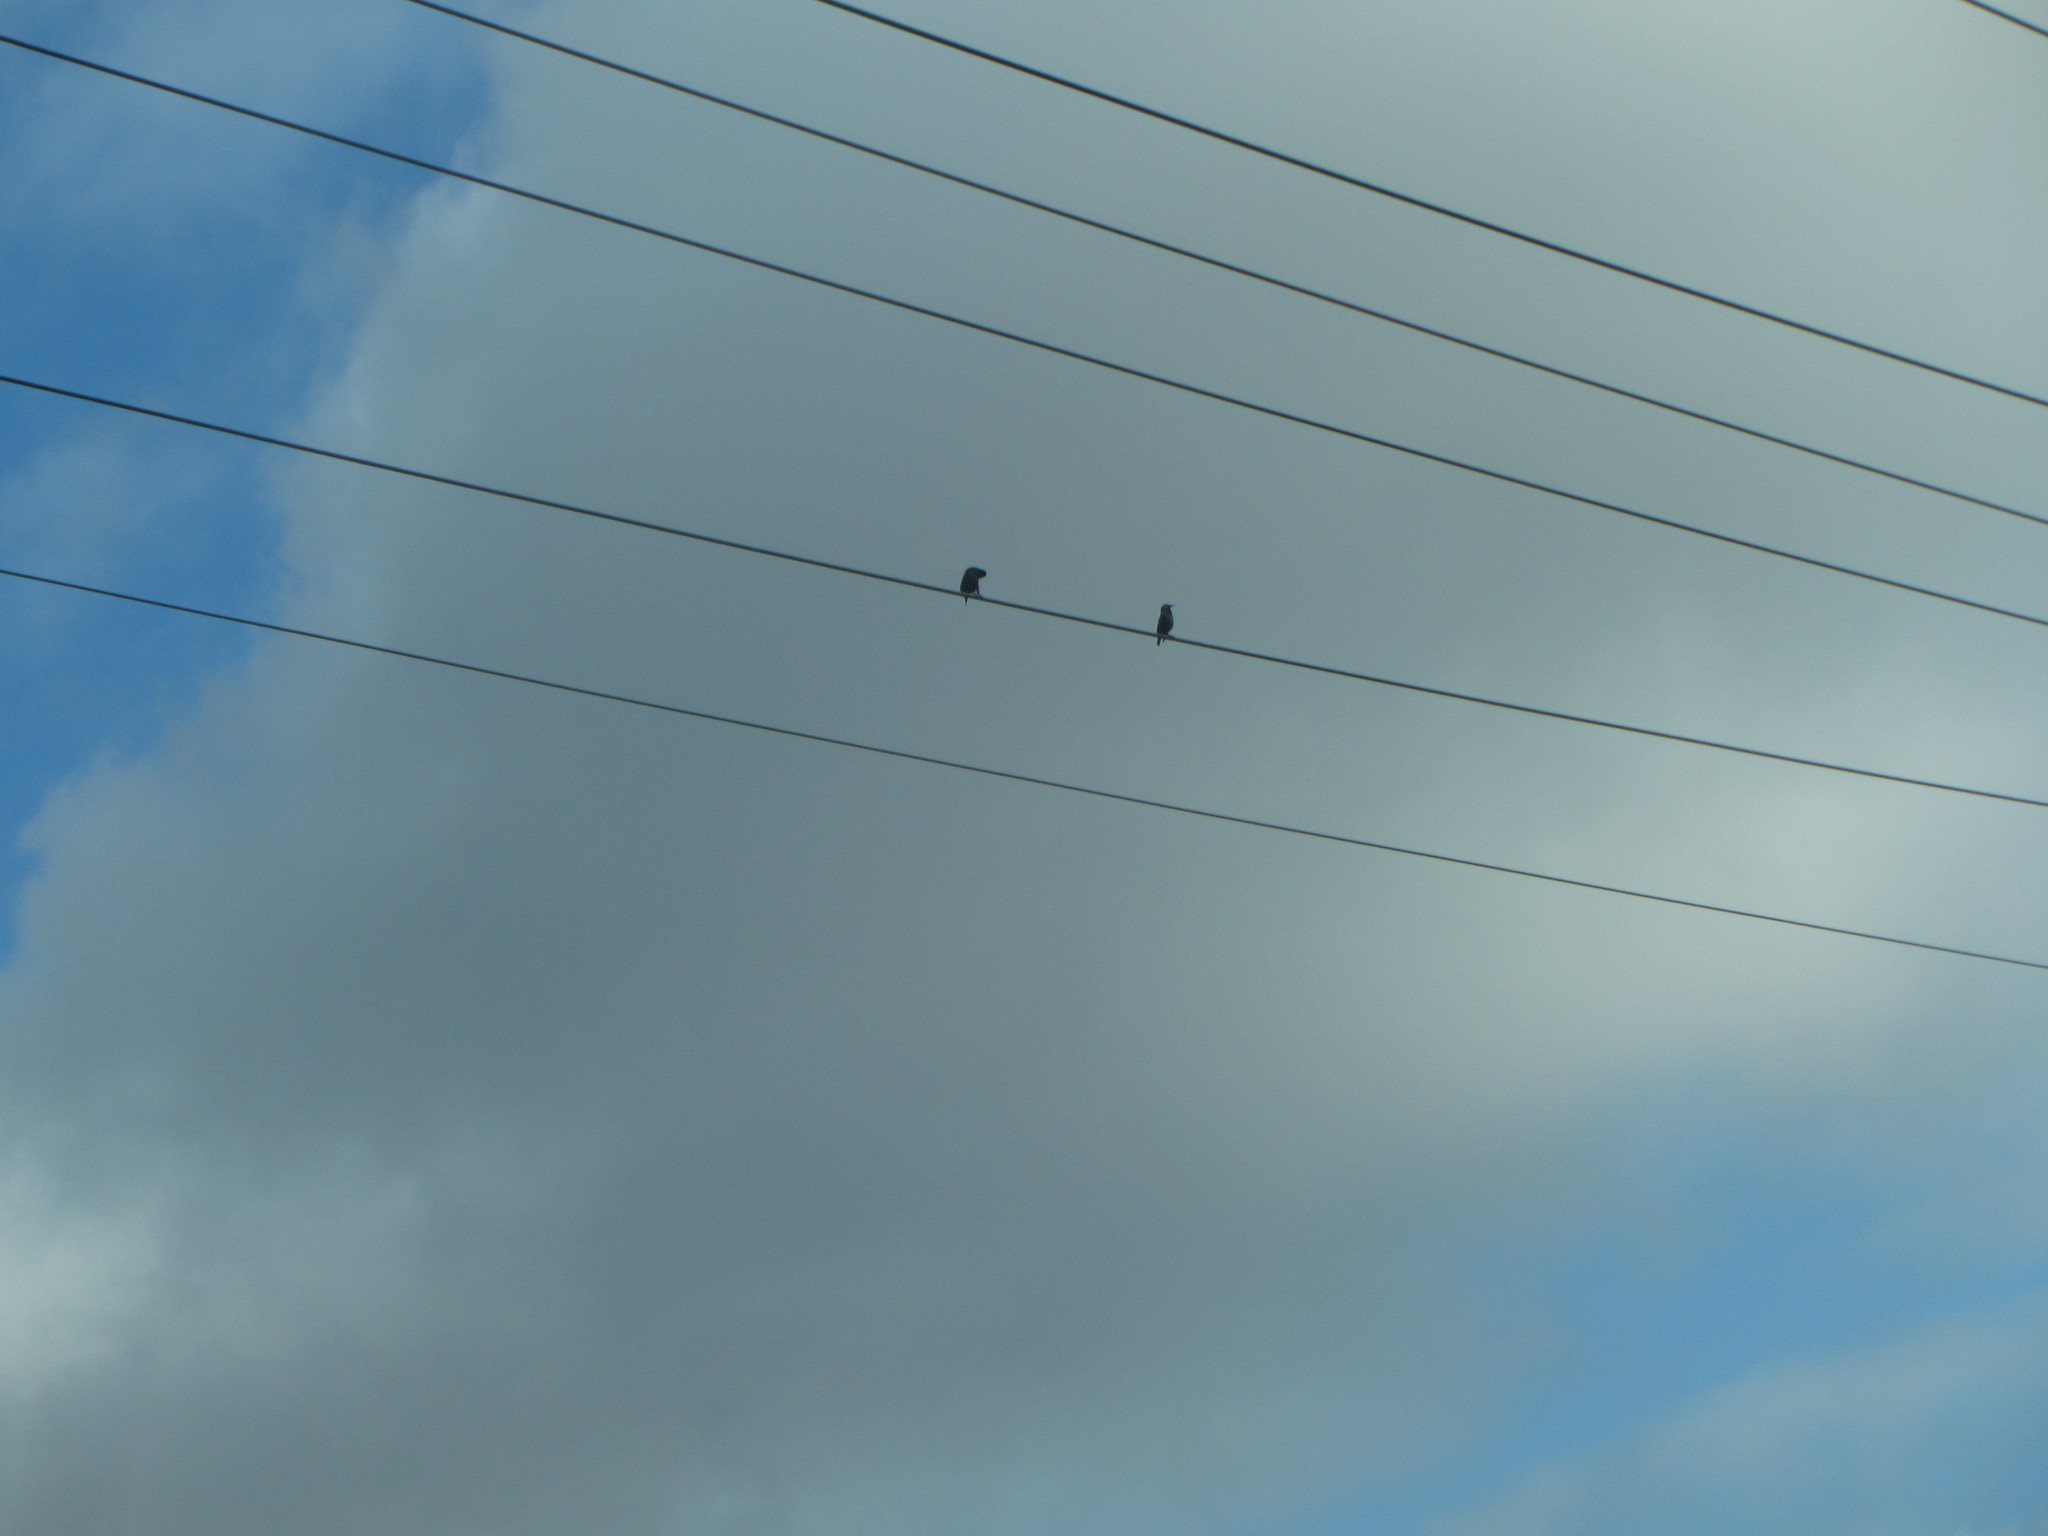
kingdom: Animalia
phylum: Chordata
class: Aves
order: Passeriformes
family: Sturnidae
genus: Sturnus
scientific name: Sturnus vulgaris
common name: Common starling
